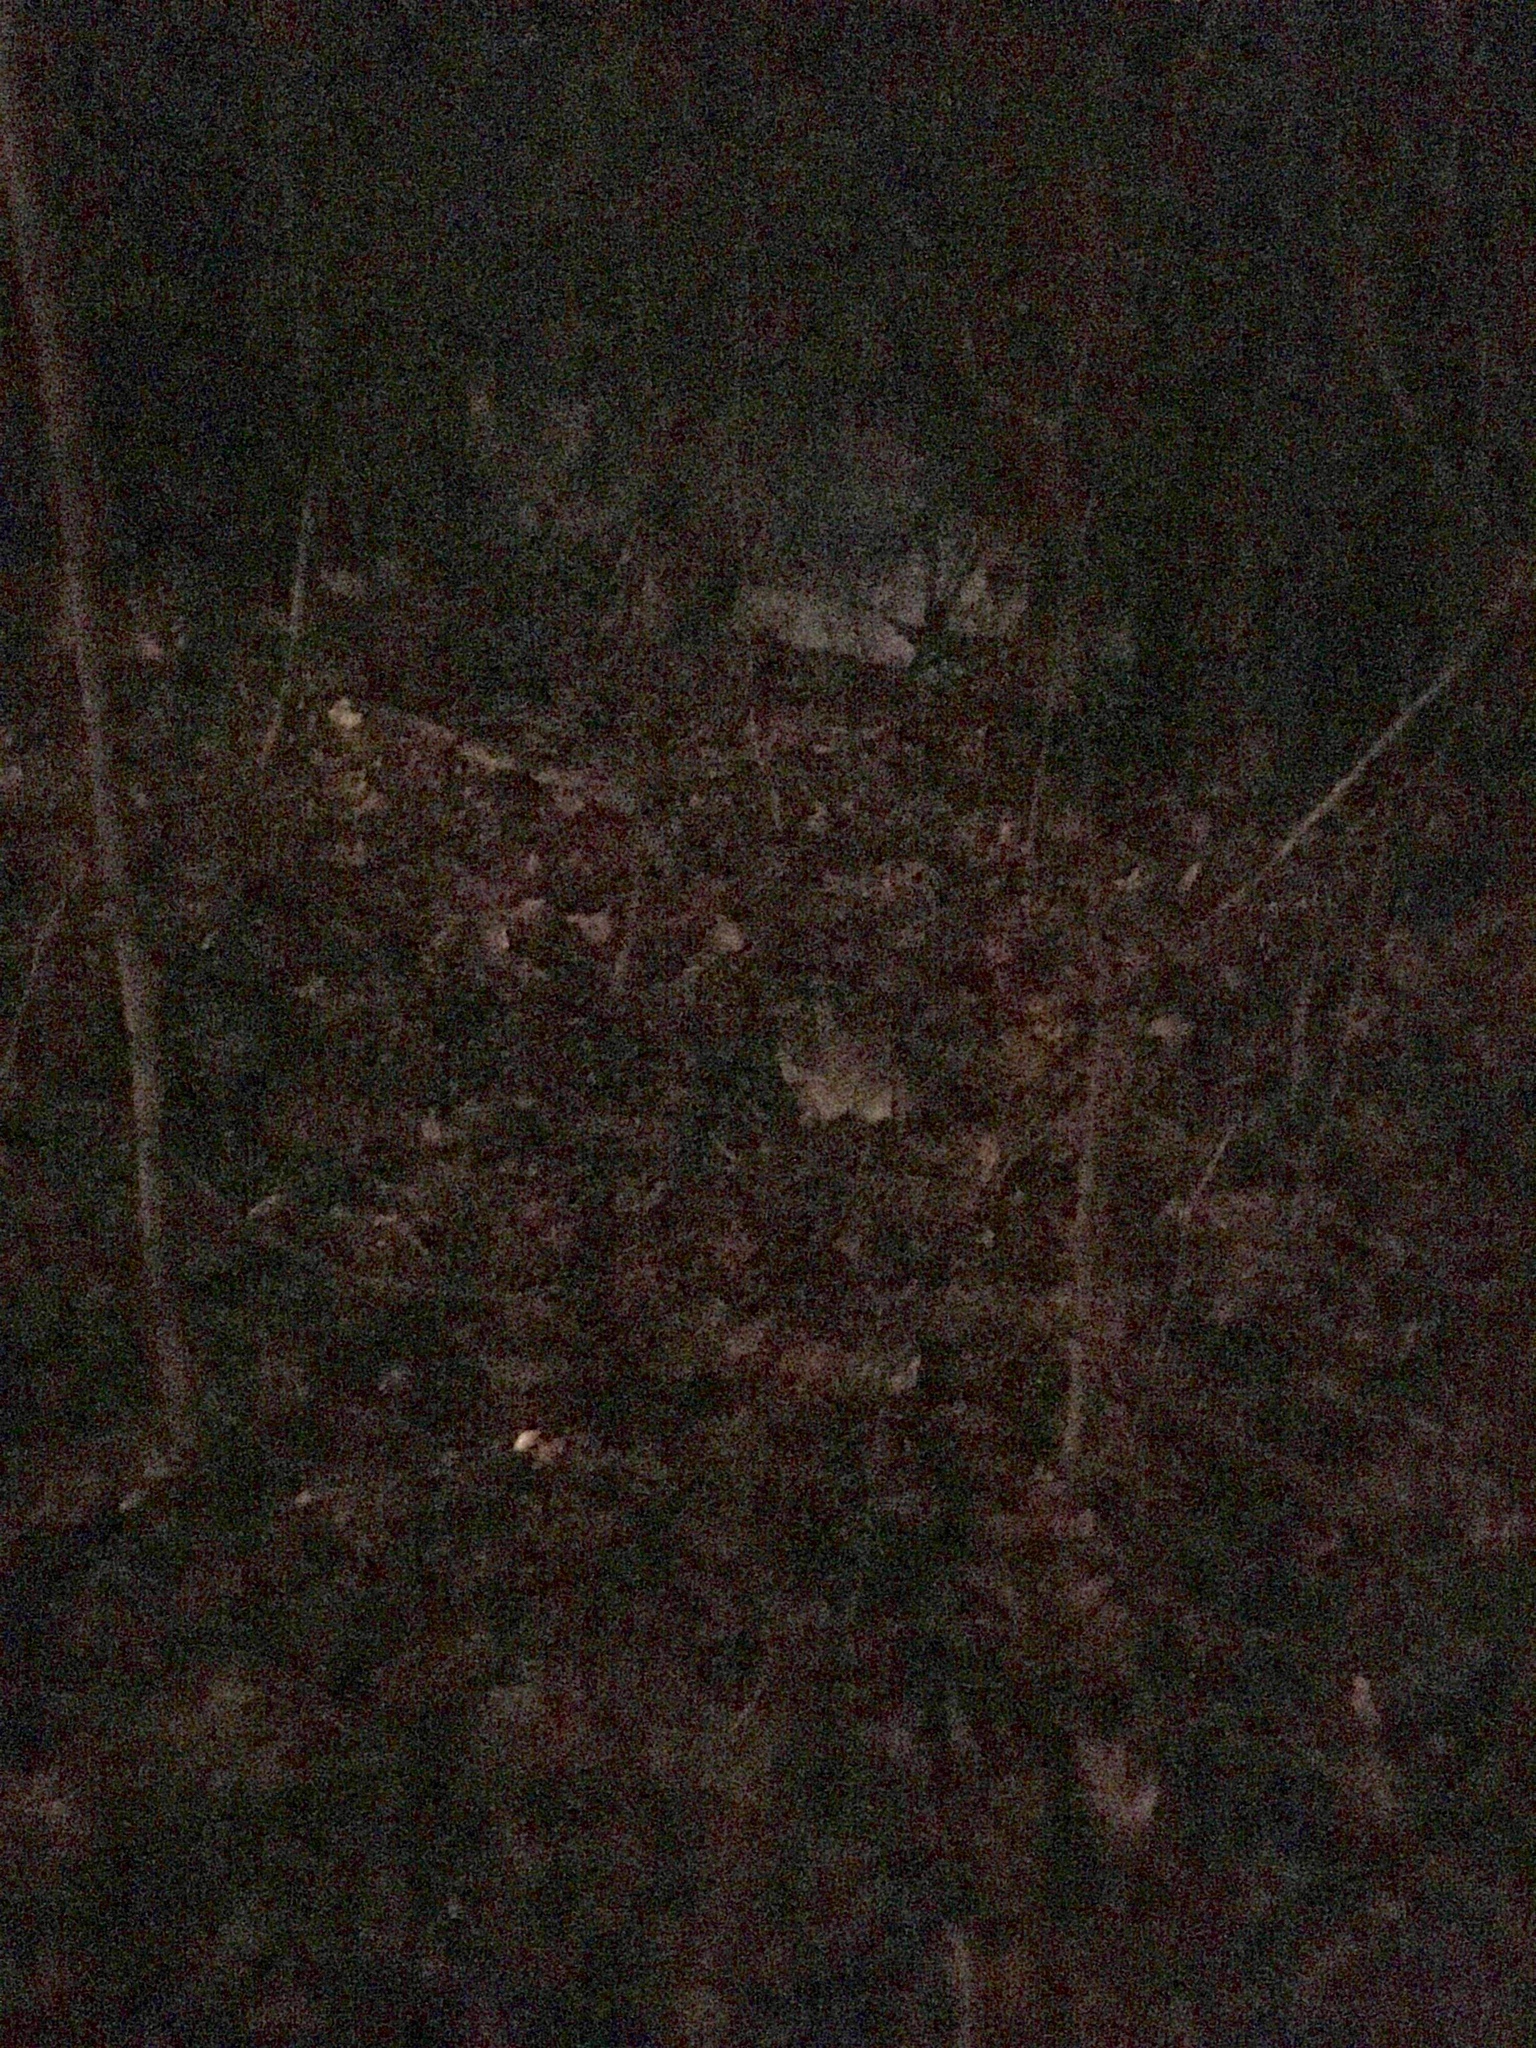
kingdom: Animalia
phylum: Chordata
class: Mammalia
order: Lagomorpha
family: Leporidae
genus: Sylvilagus
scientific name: Sylvilagus floridanus
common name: Eastern cottontail
